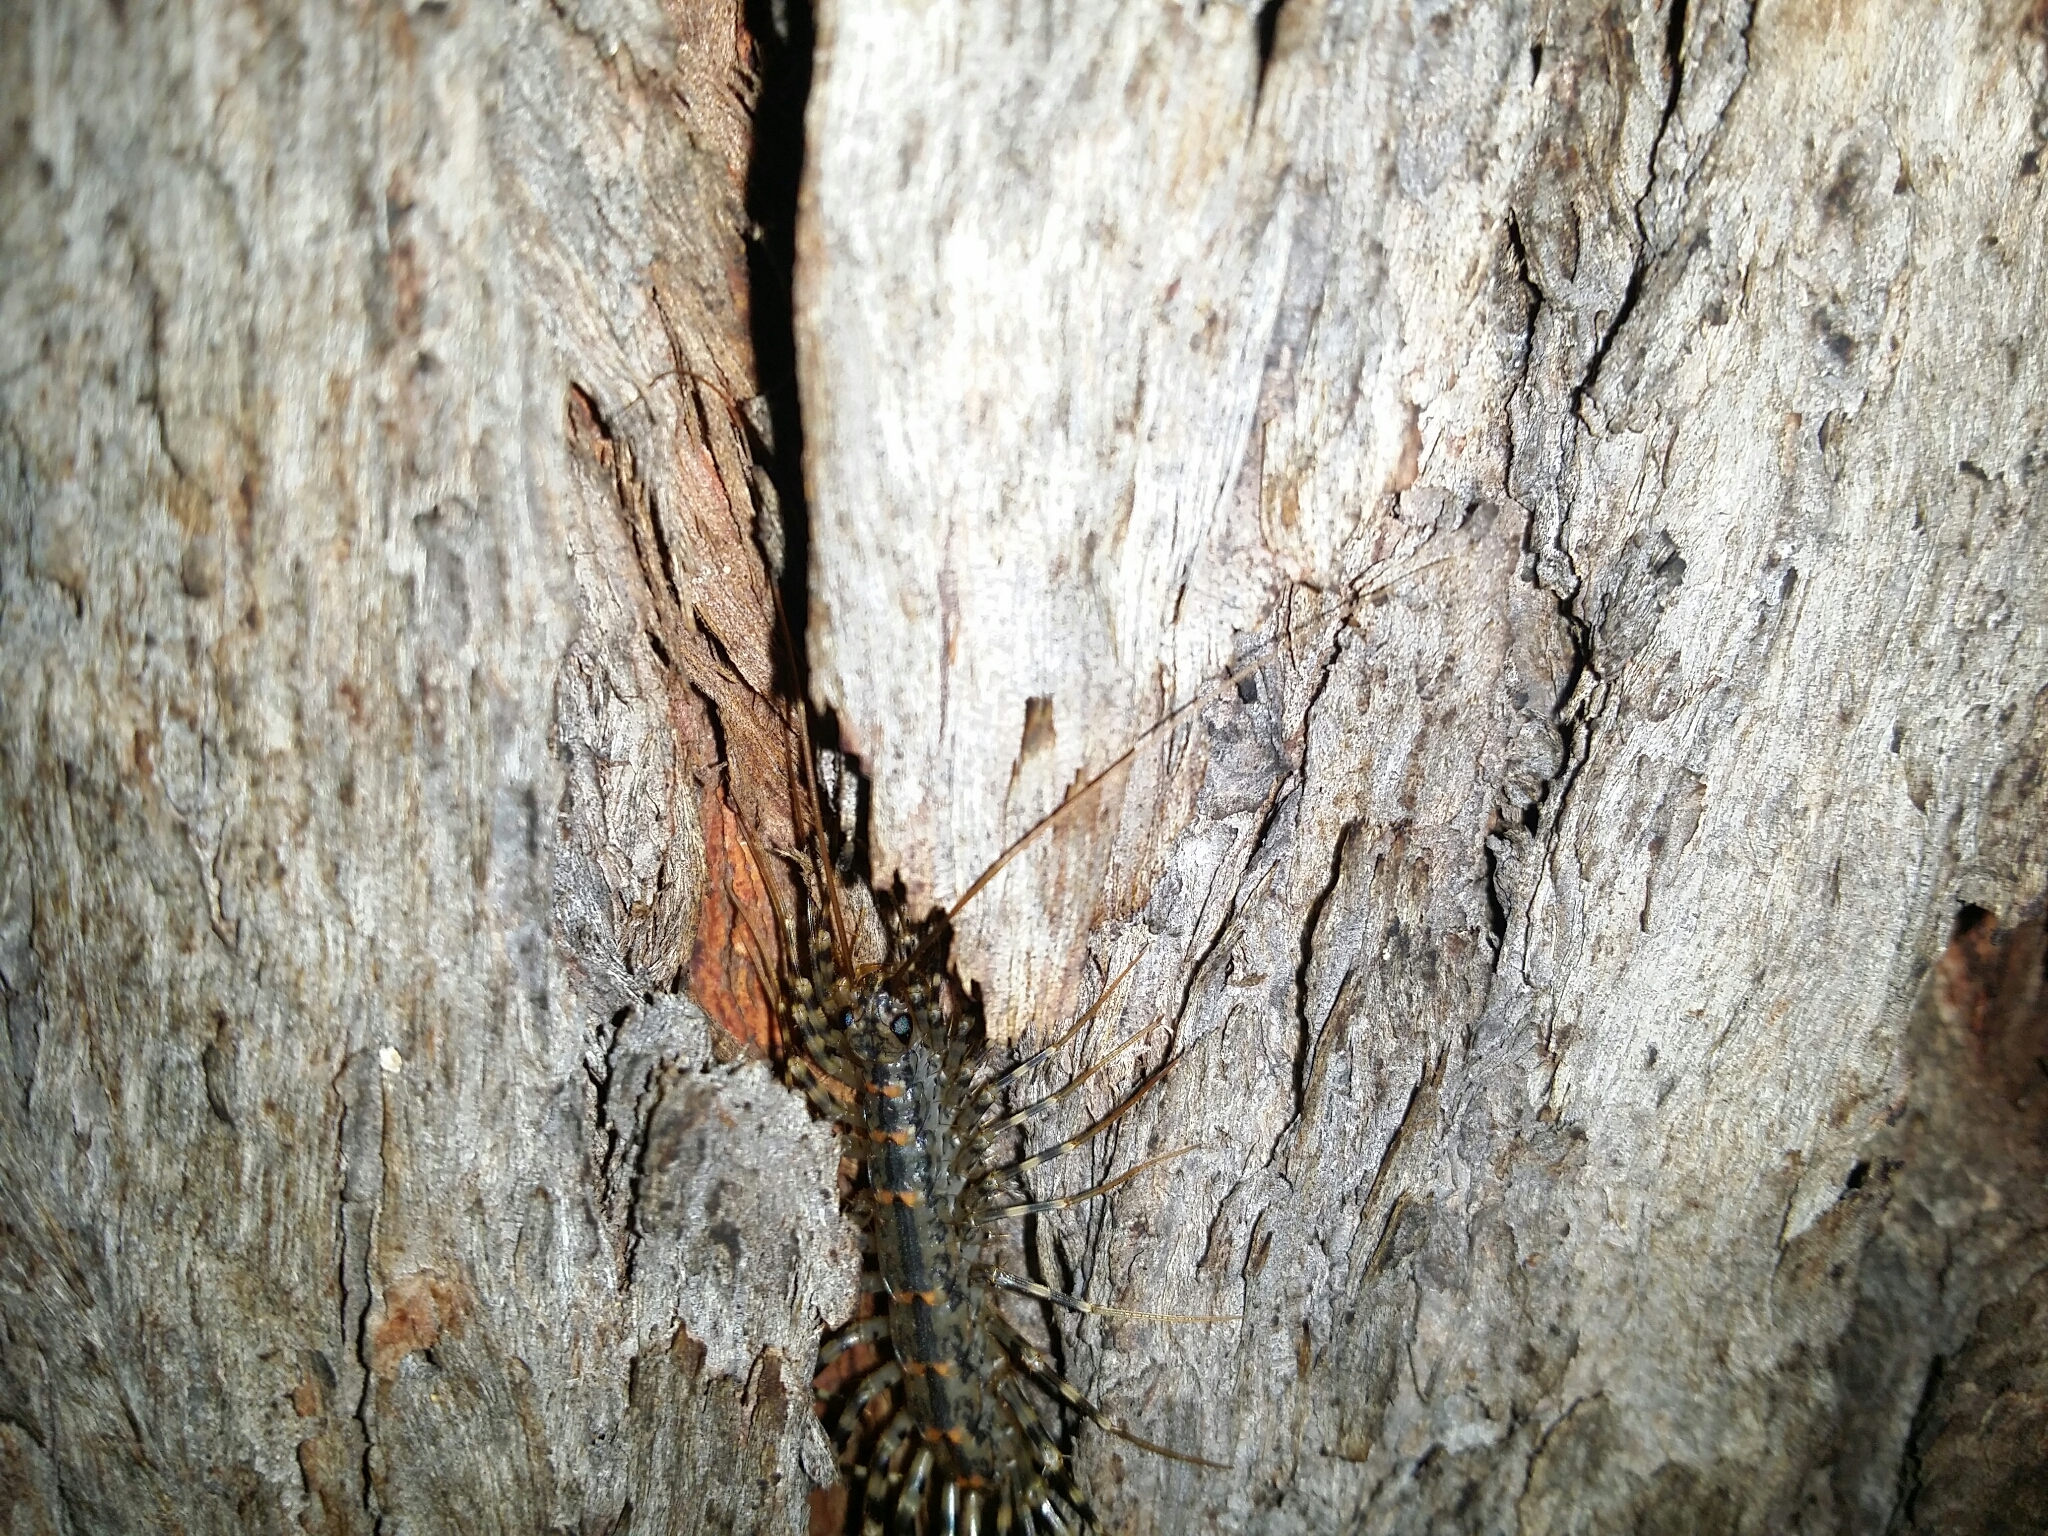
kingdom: Animalia
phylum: Arthropoda
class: Chilopoda
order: Scutigeromorpha
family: Scutigeridae
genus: Allothereua
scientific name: Allothereua maculata
